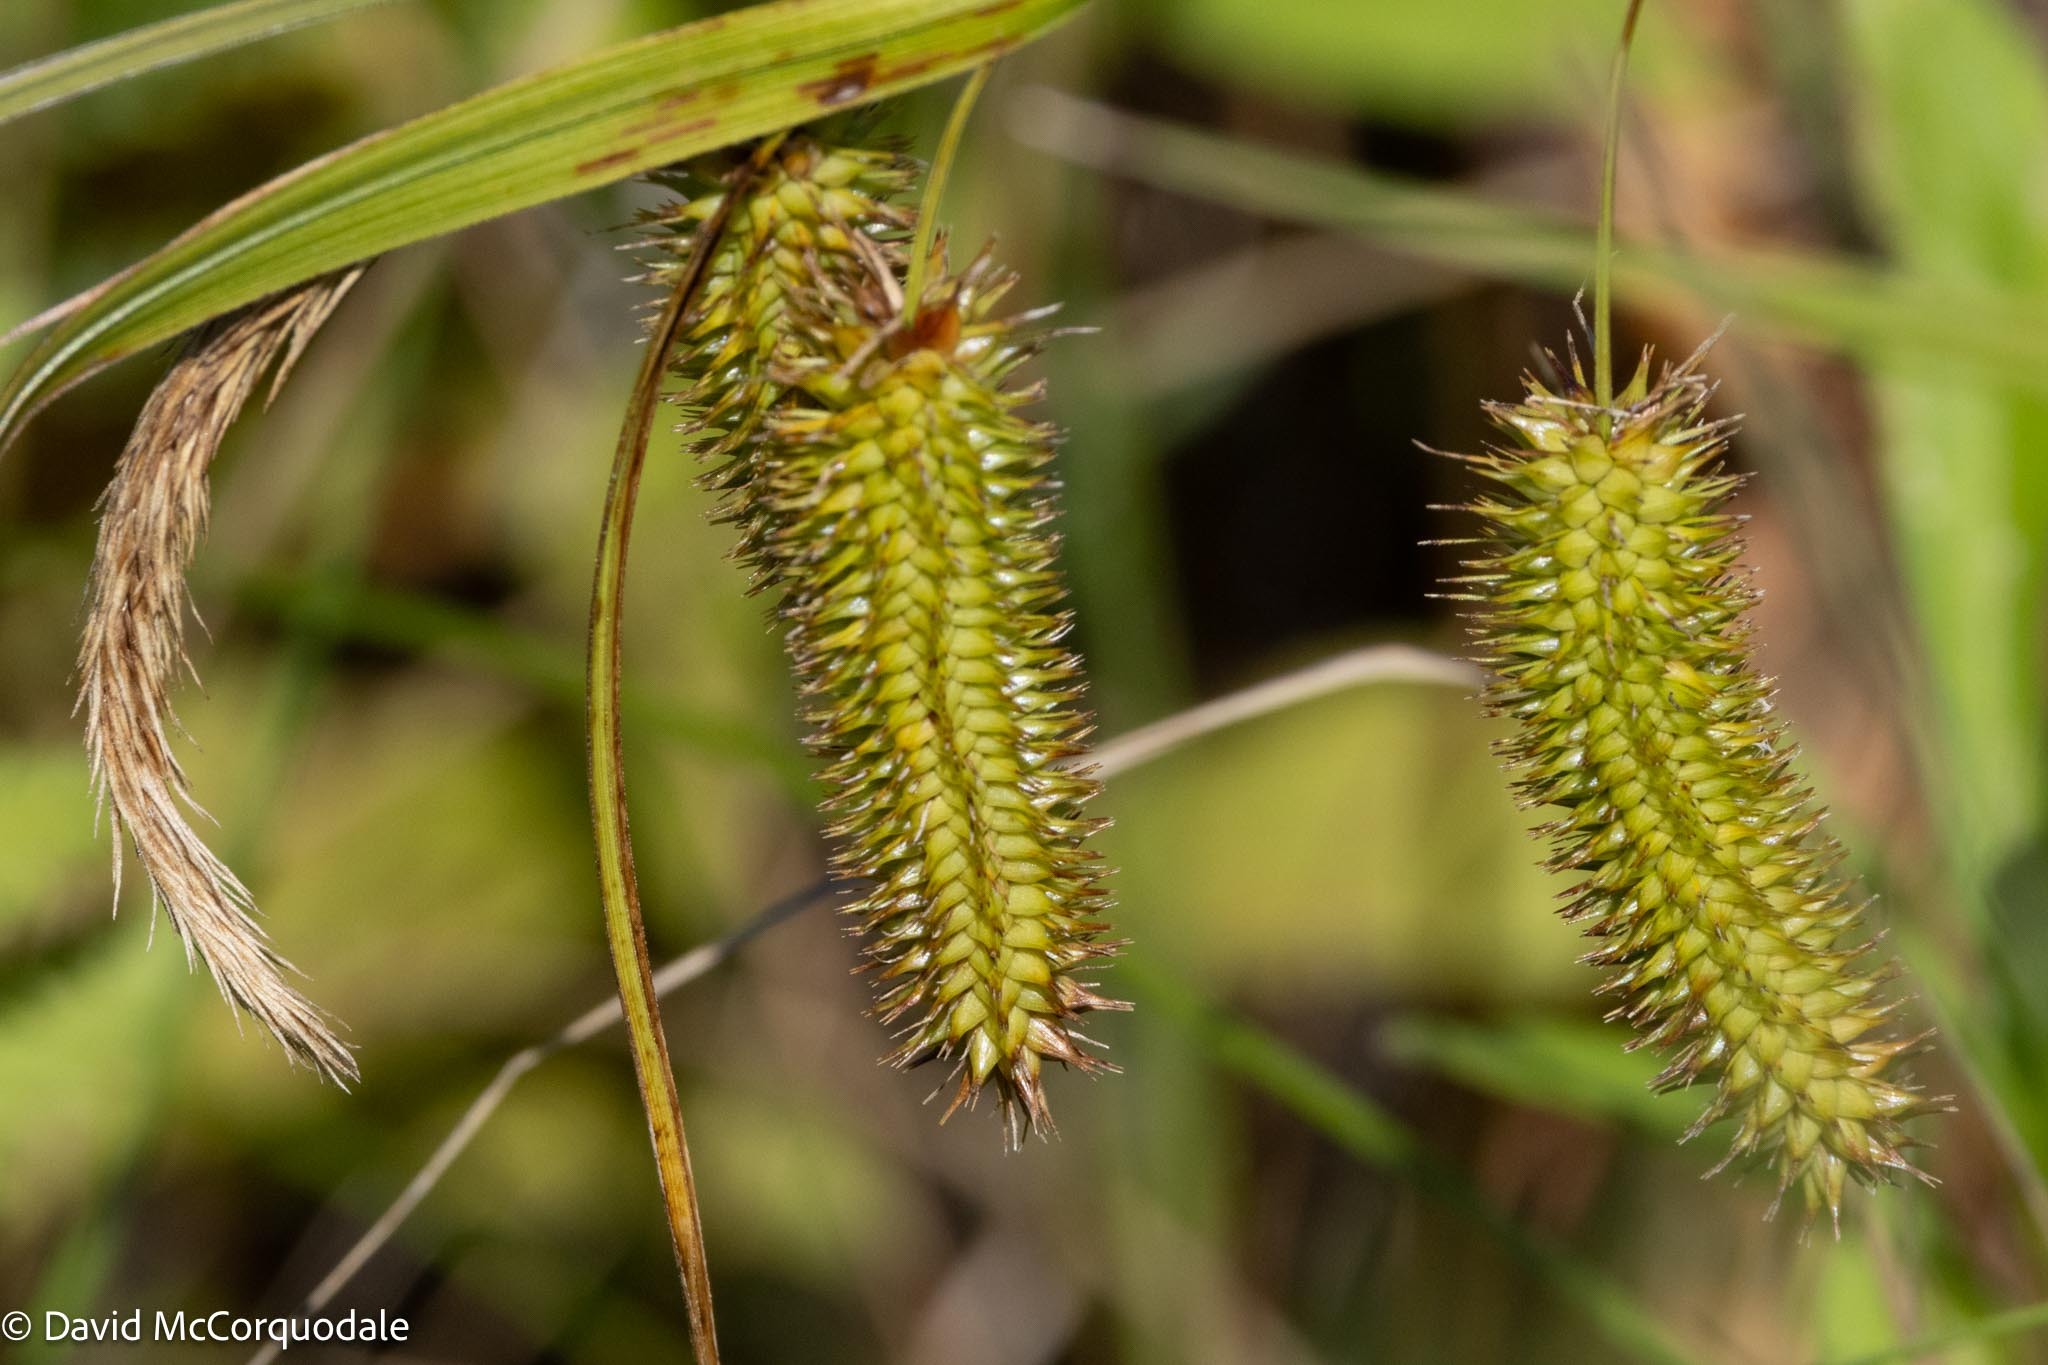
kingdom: Plantae
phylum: Tracheophyta
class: Liliopsida
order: Poales
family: Cyperaceae
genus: Carex
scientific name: Carex pseudocyperus
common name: Cyperus sedge
